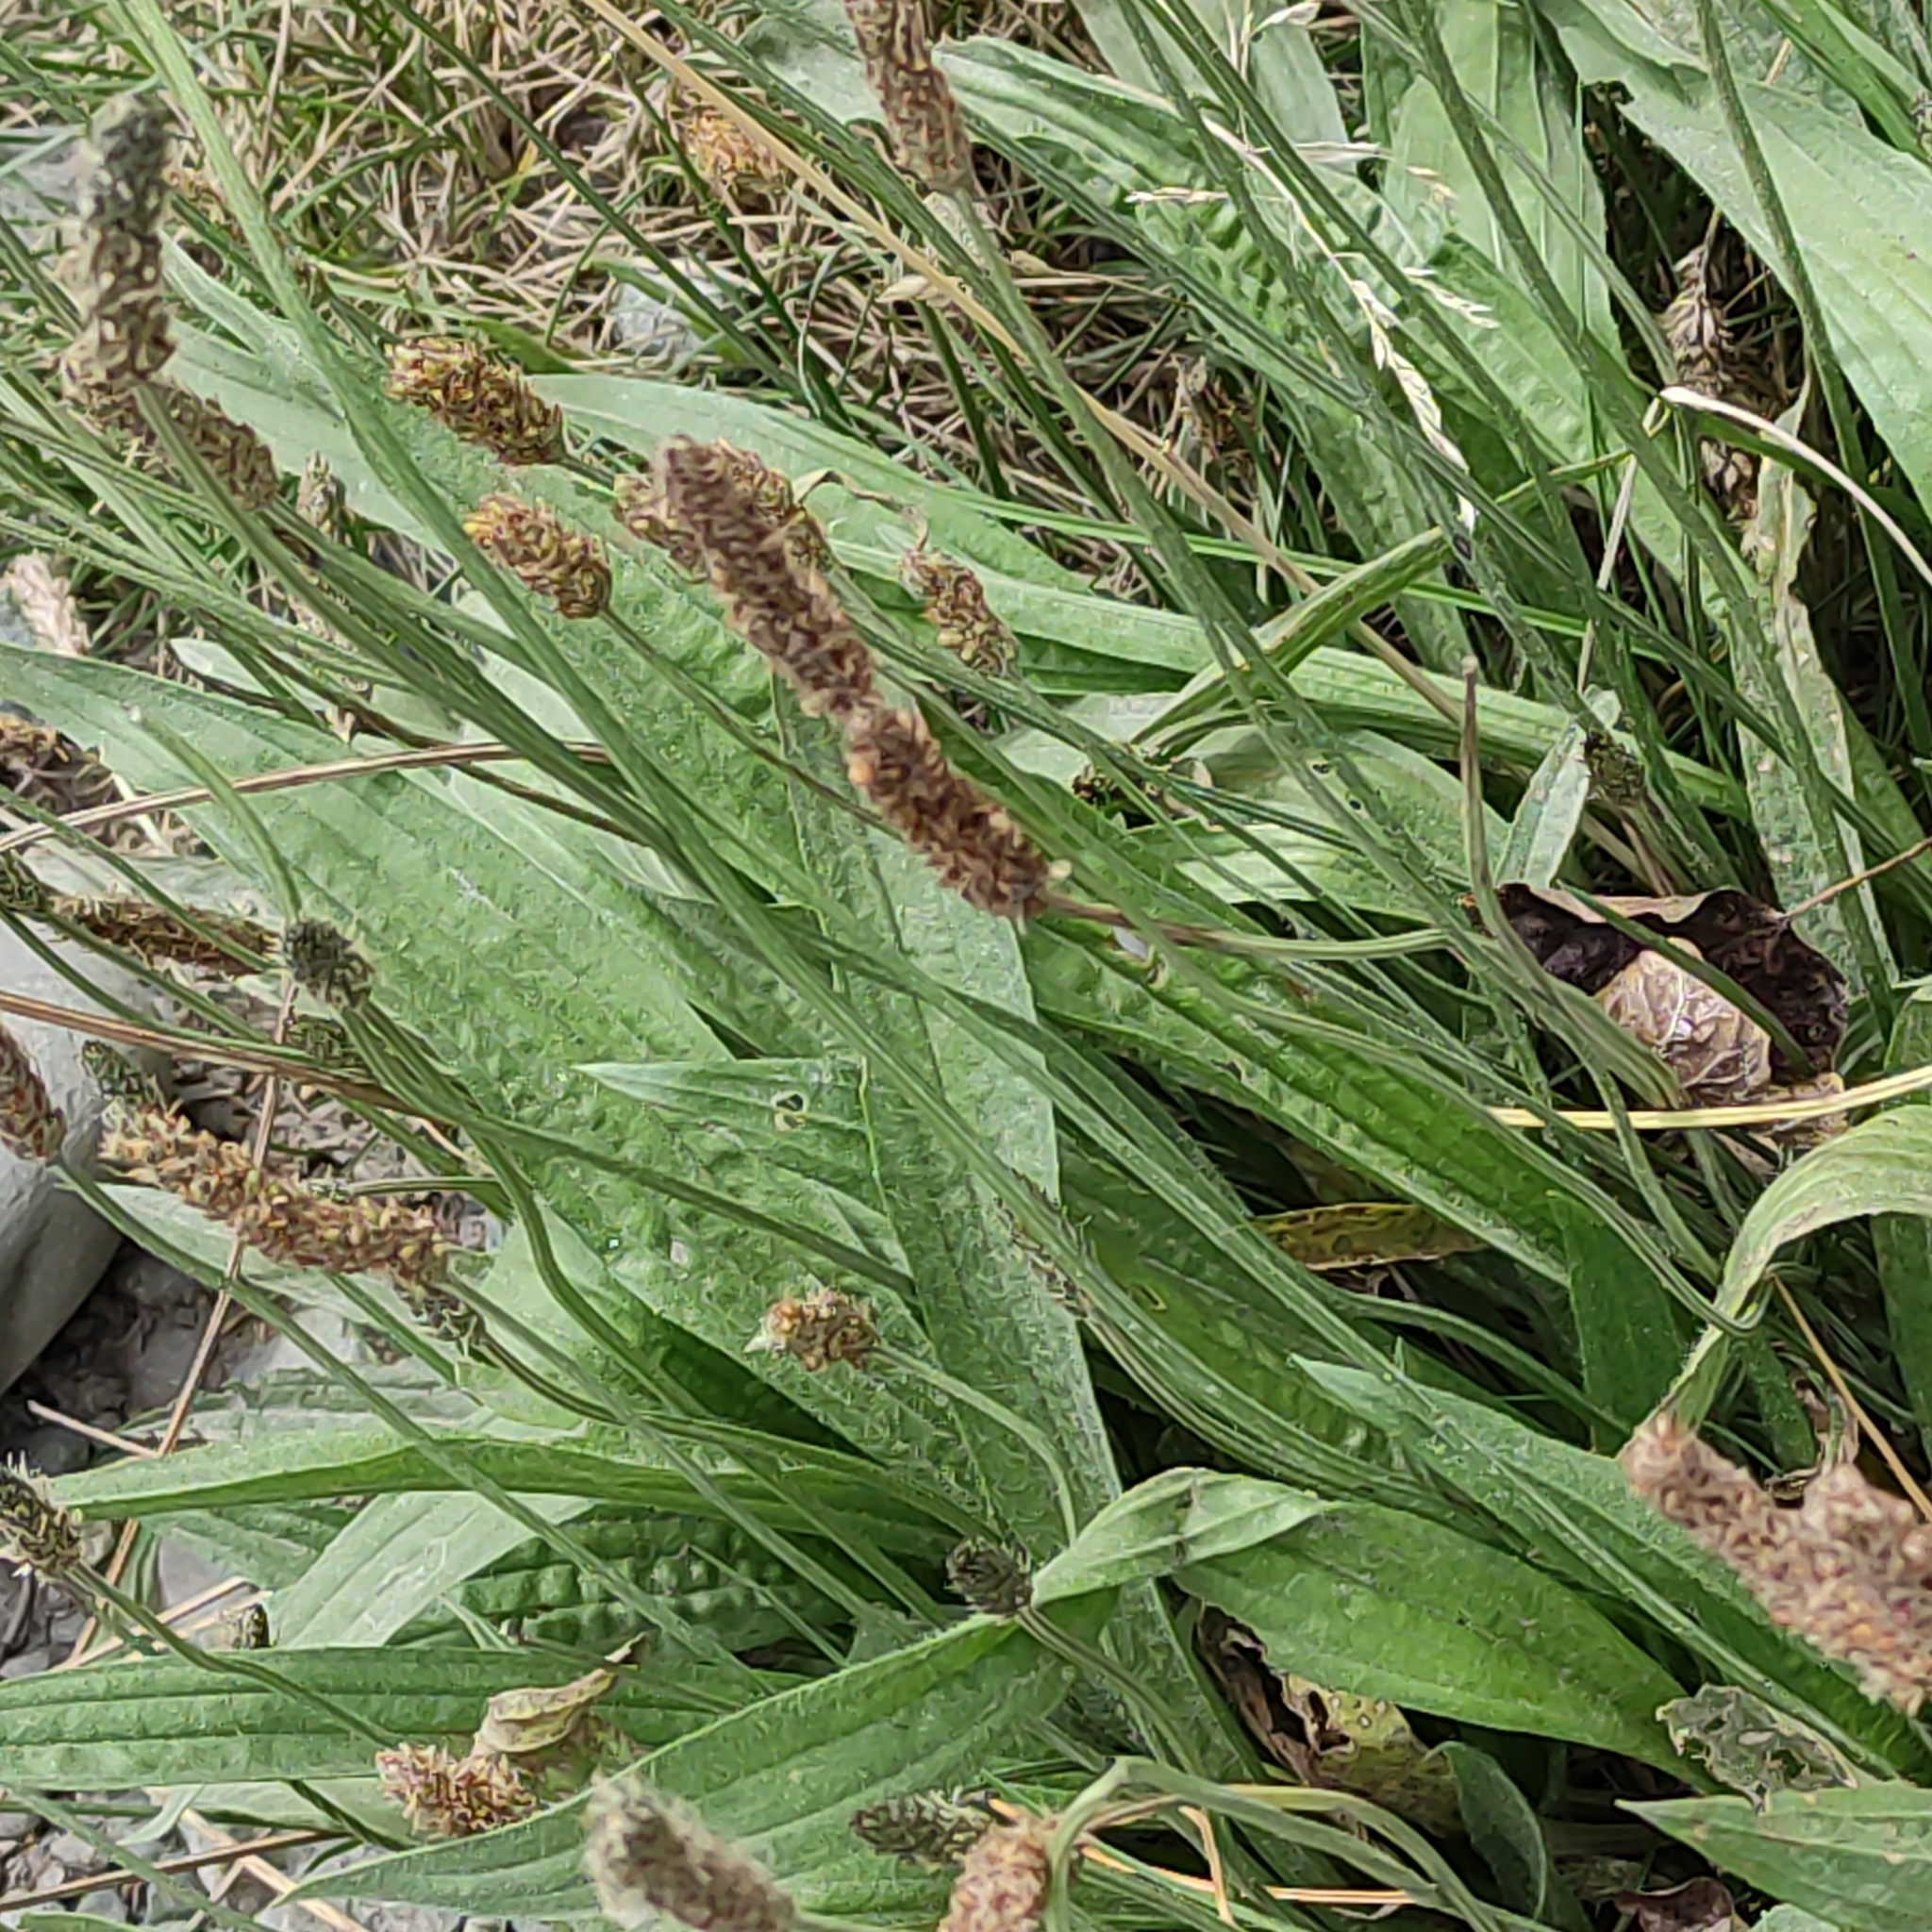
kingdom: Plantae
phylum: Tracheophyta
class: Magnoliopsida
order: Lamiales
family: Plantaginaceae
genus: Plantago
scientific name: Plantago lanceolata
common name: Ribwort plantain
